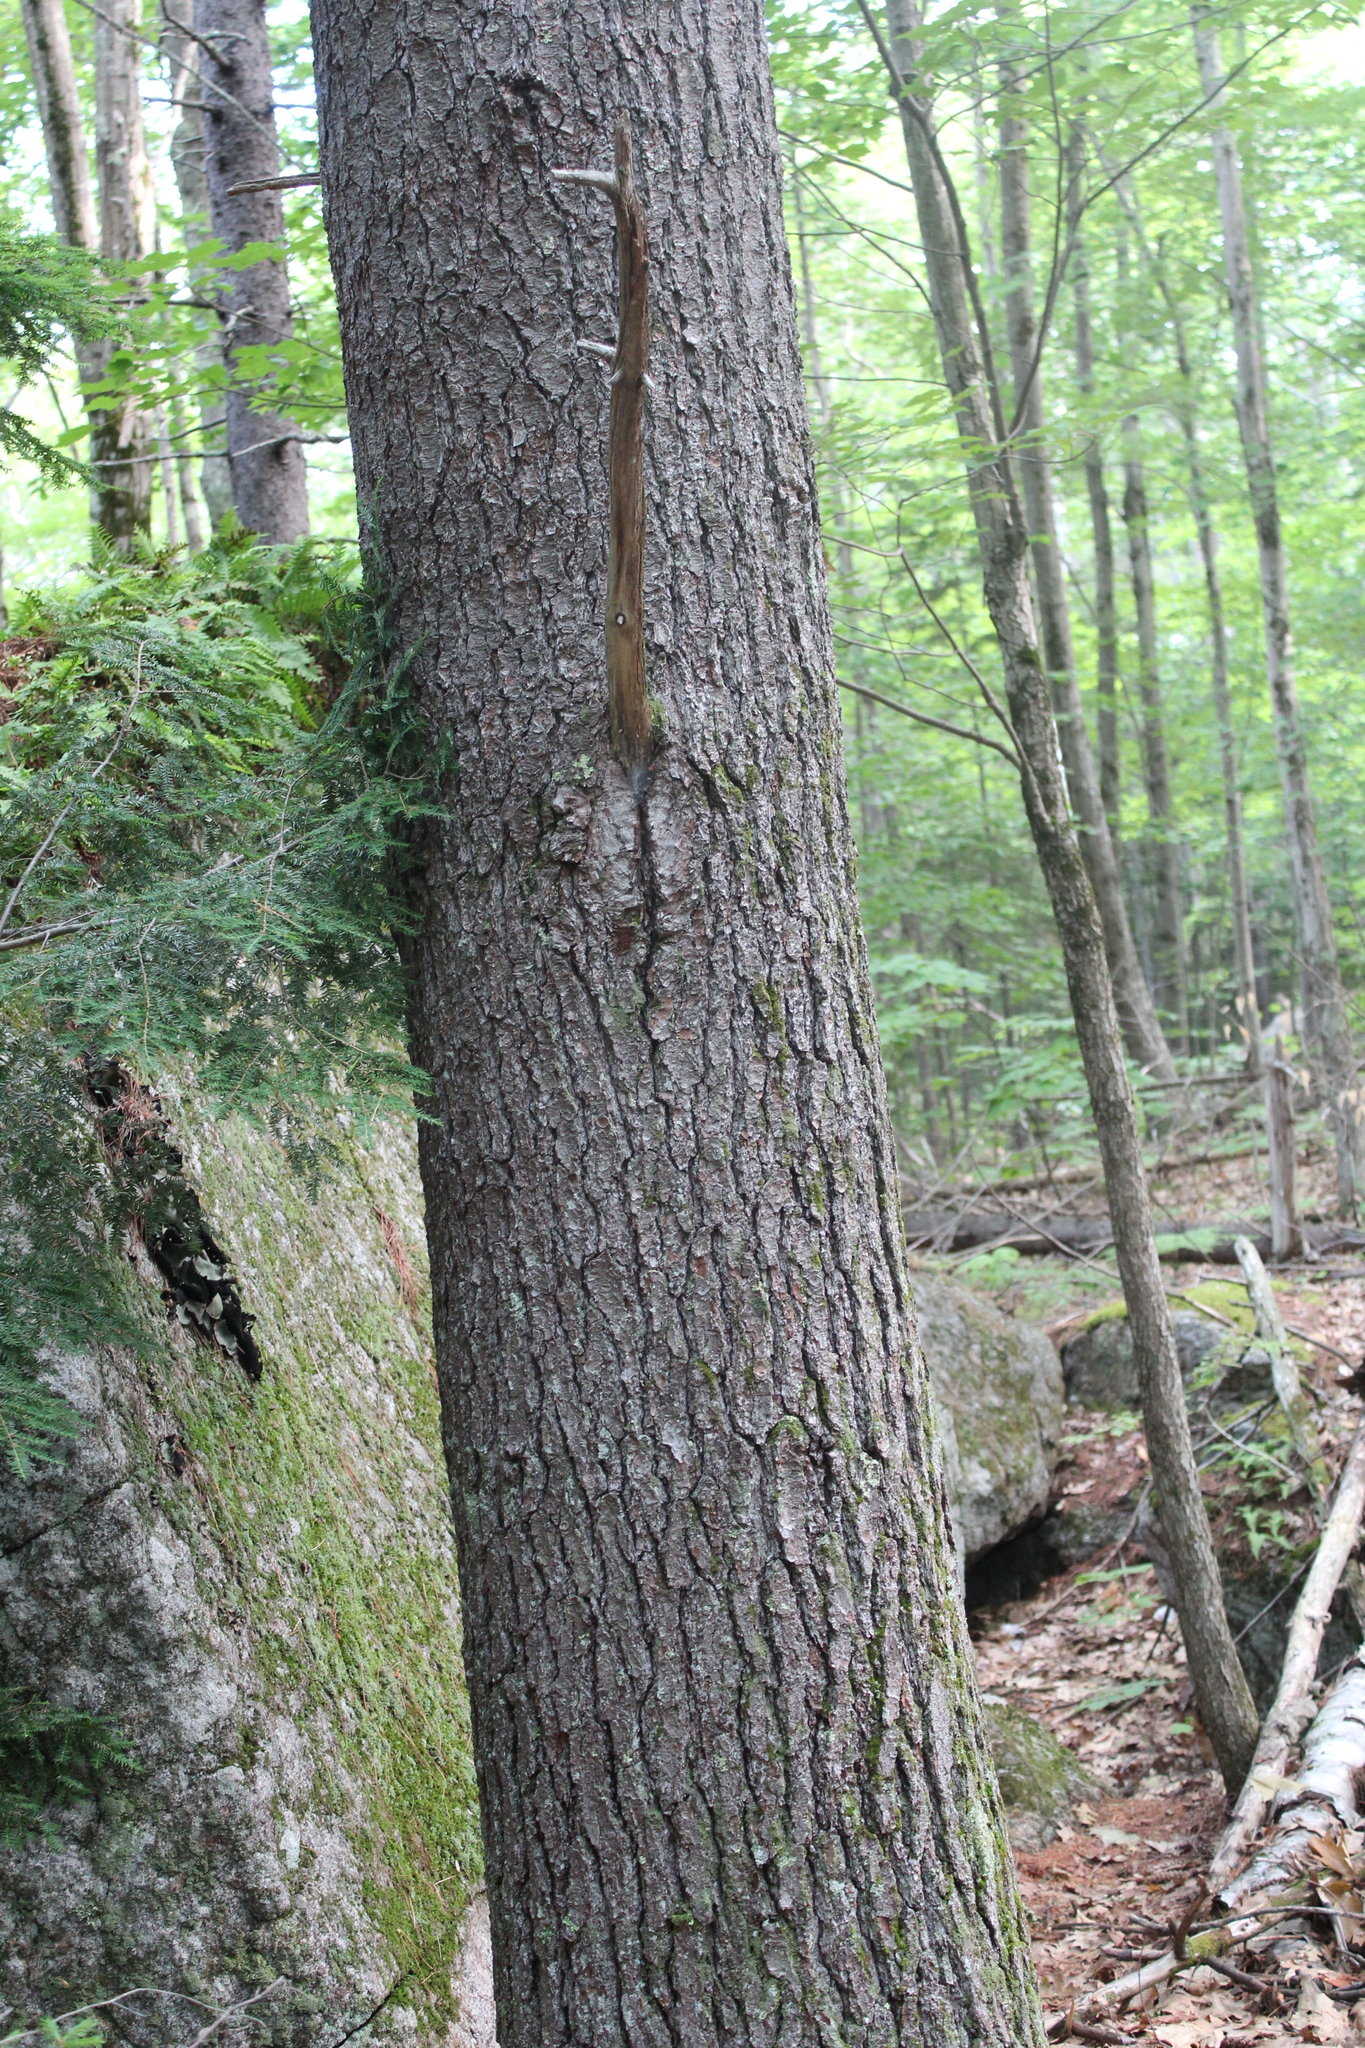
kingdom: Plantae
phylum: Tracheophyta
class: Pinopsida
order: Pinales
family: Pinaceae
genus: Pinus
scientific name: Pinus strobus
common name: Weymouth pine
